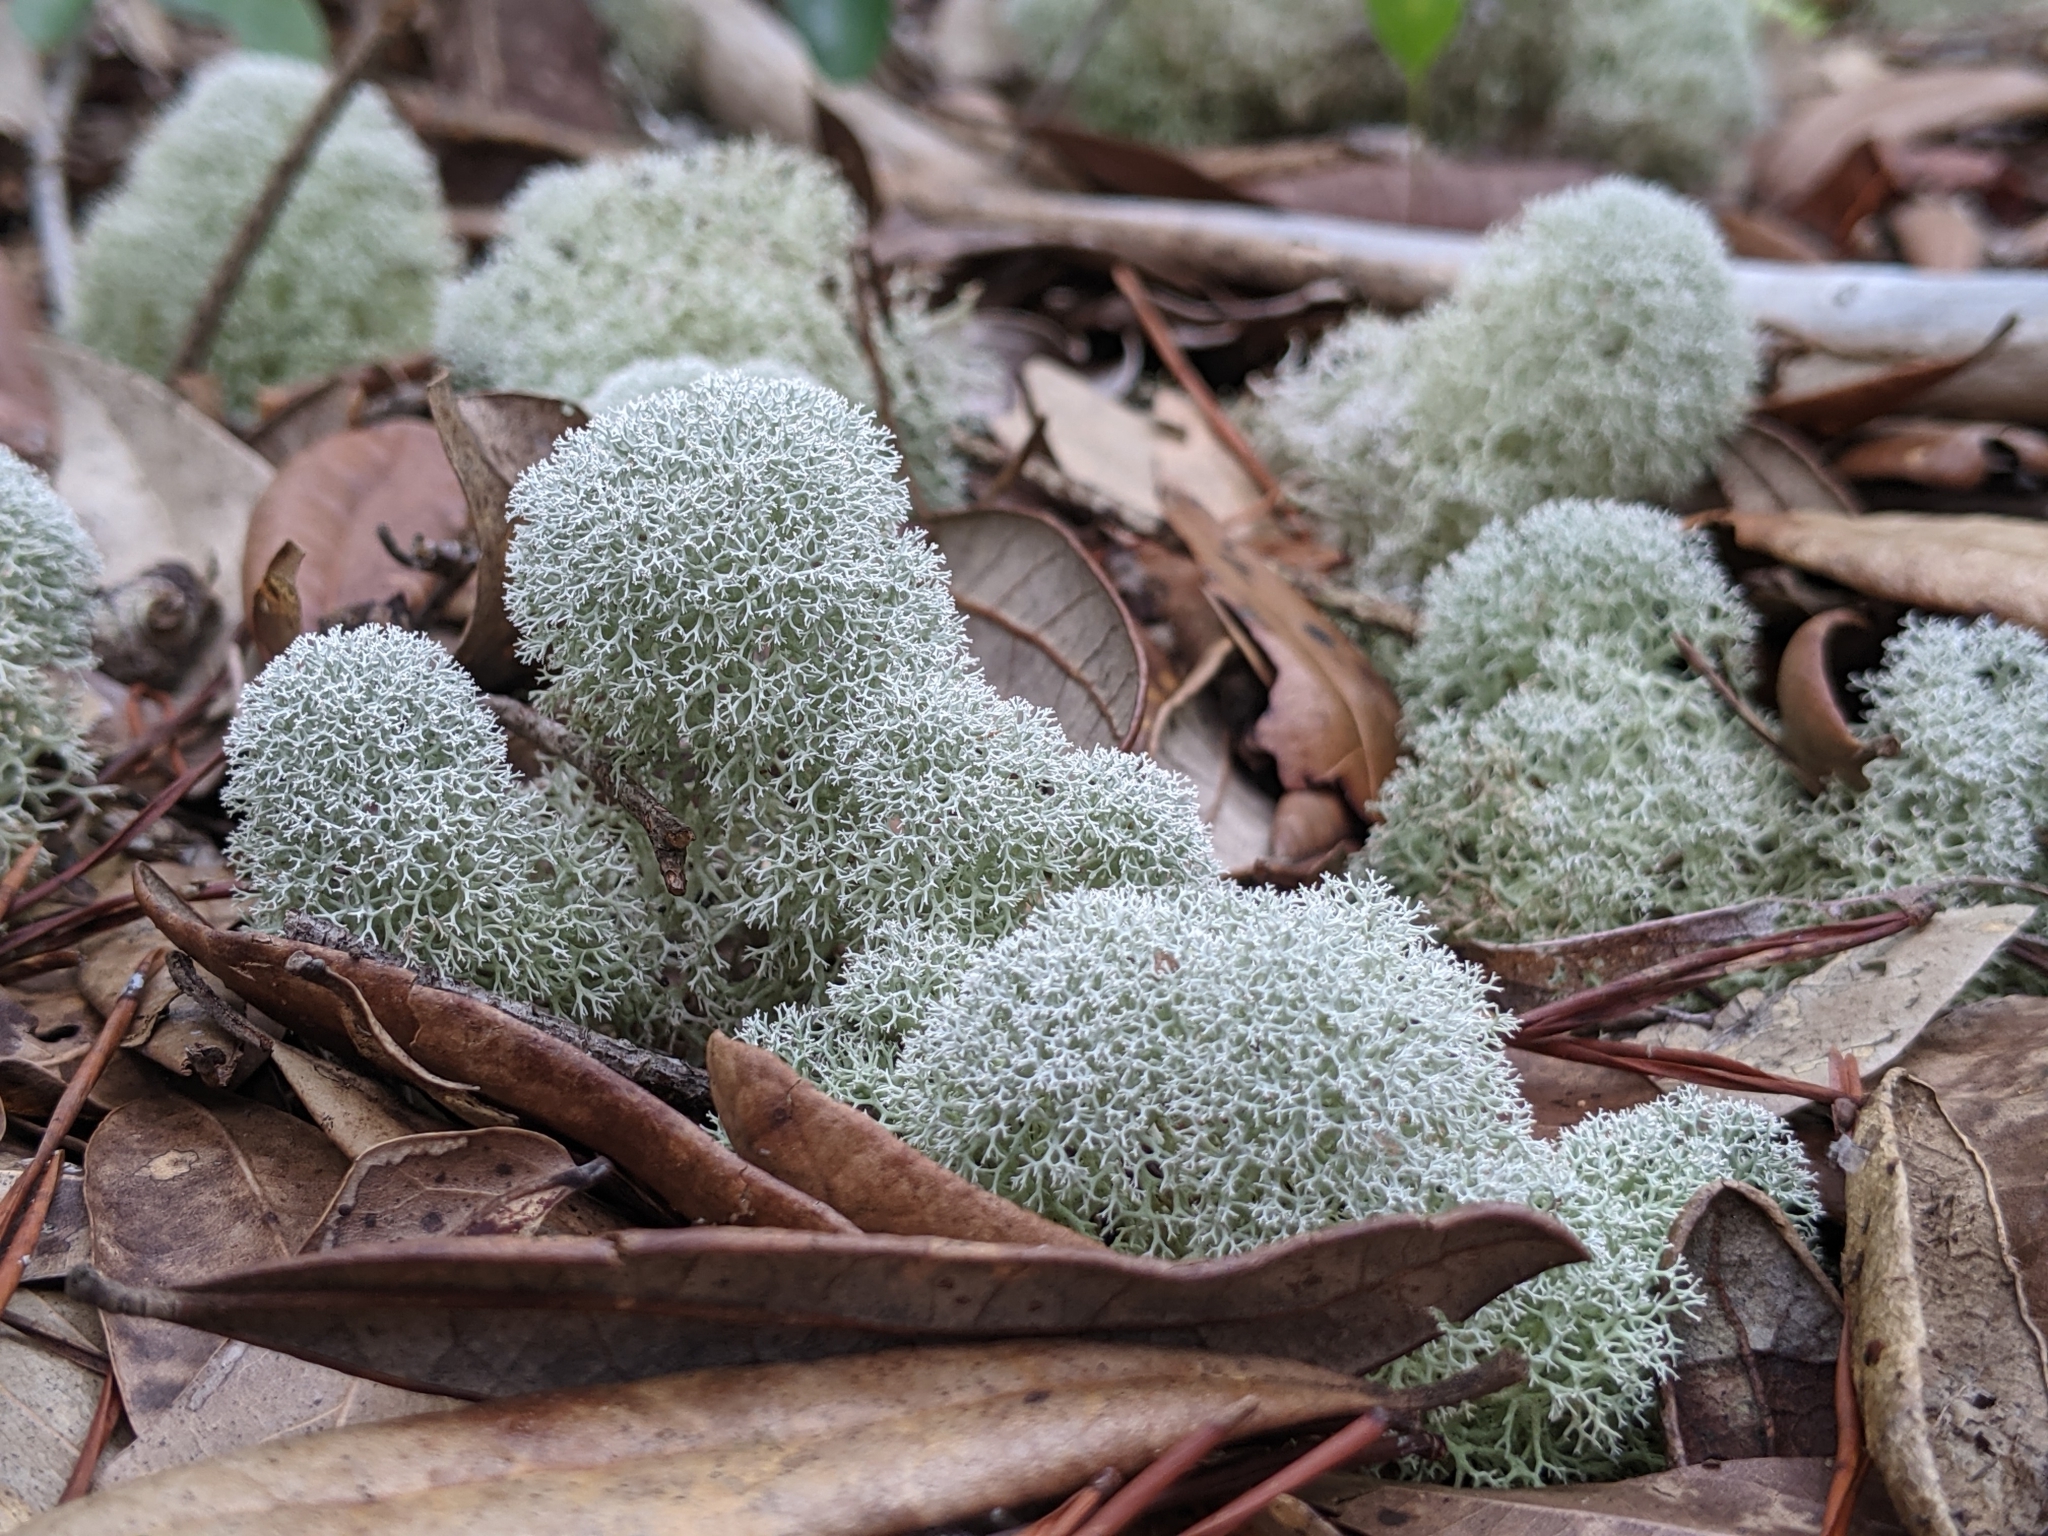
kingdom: Fungi
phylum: Ascomycota
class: Lecanoromycetes
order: Lecanorales
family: Cladoniaceae
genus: Cladonia
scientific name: Cladonia evansii
